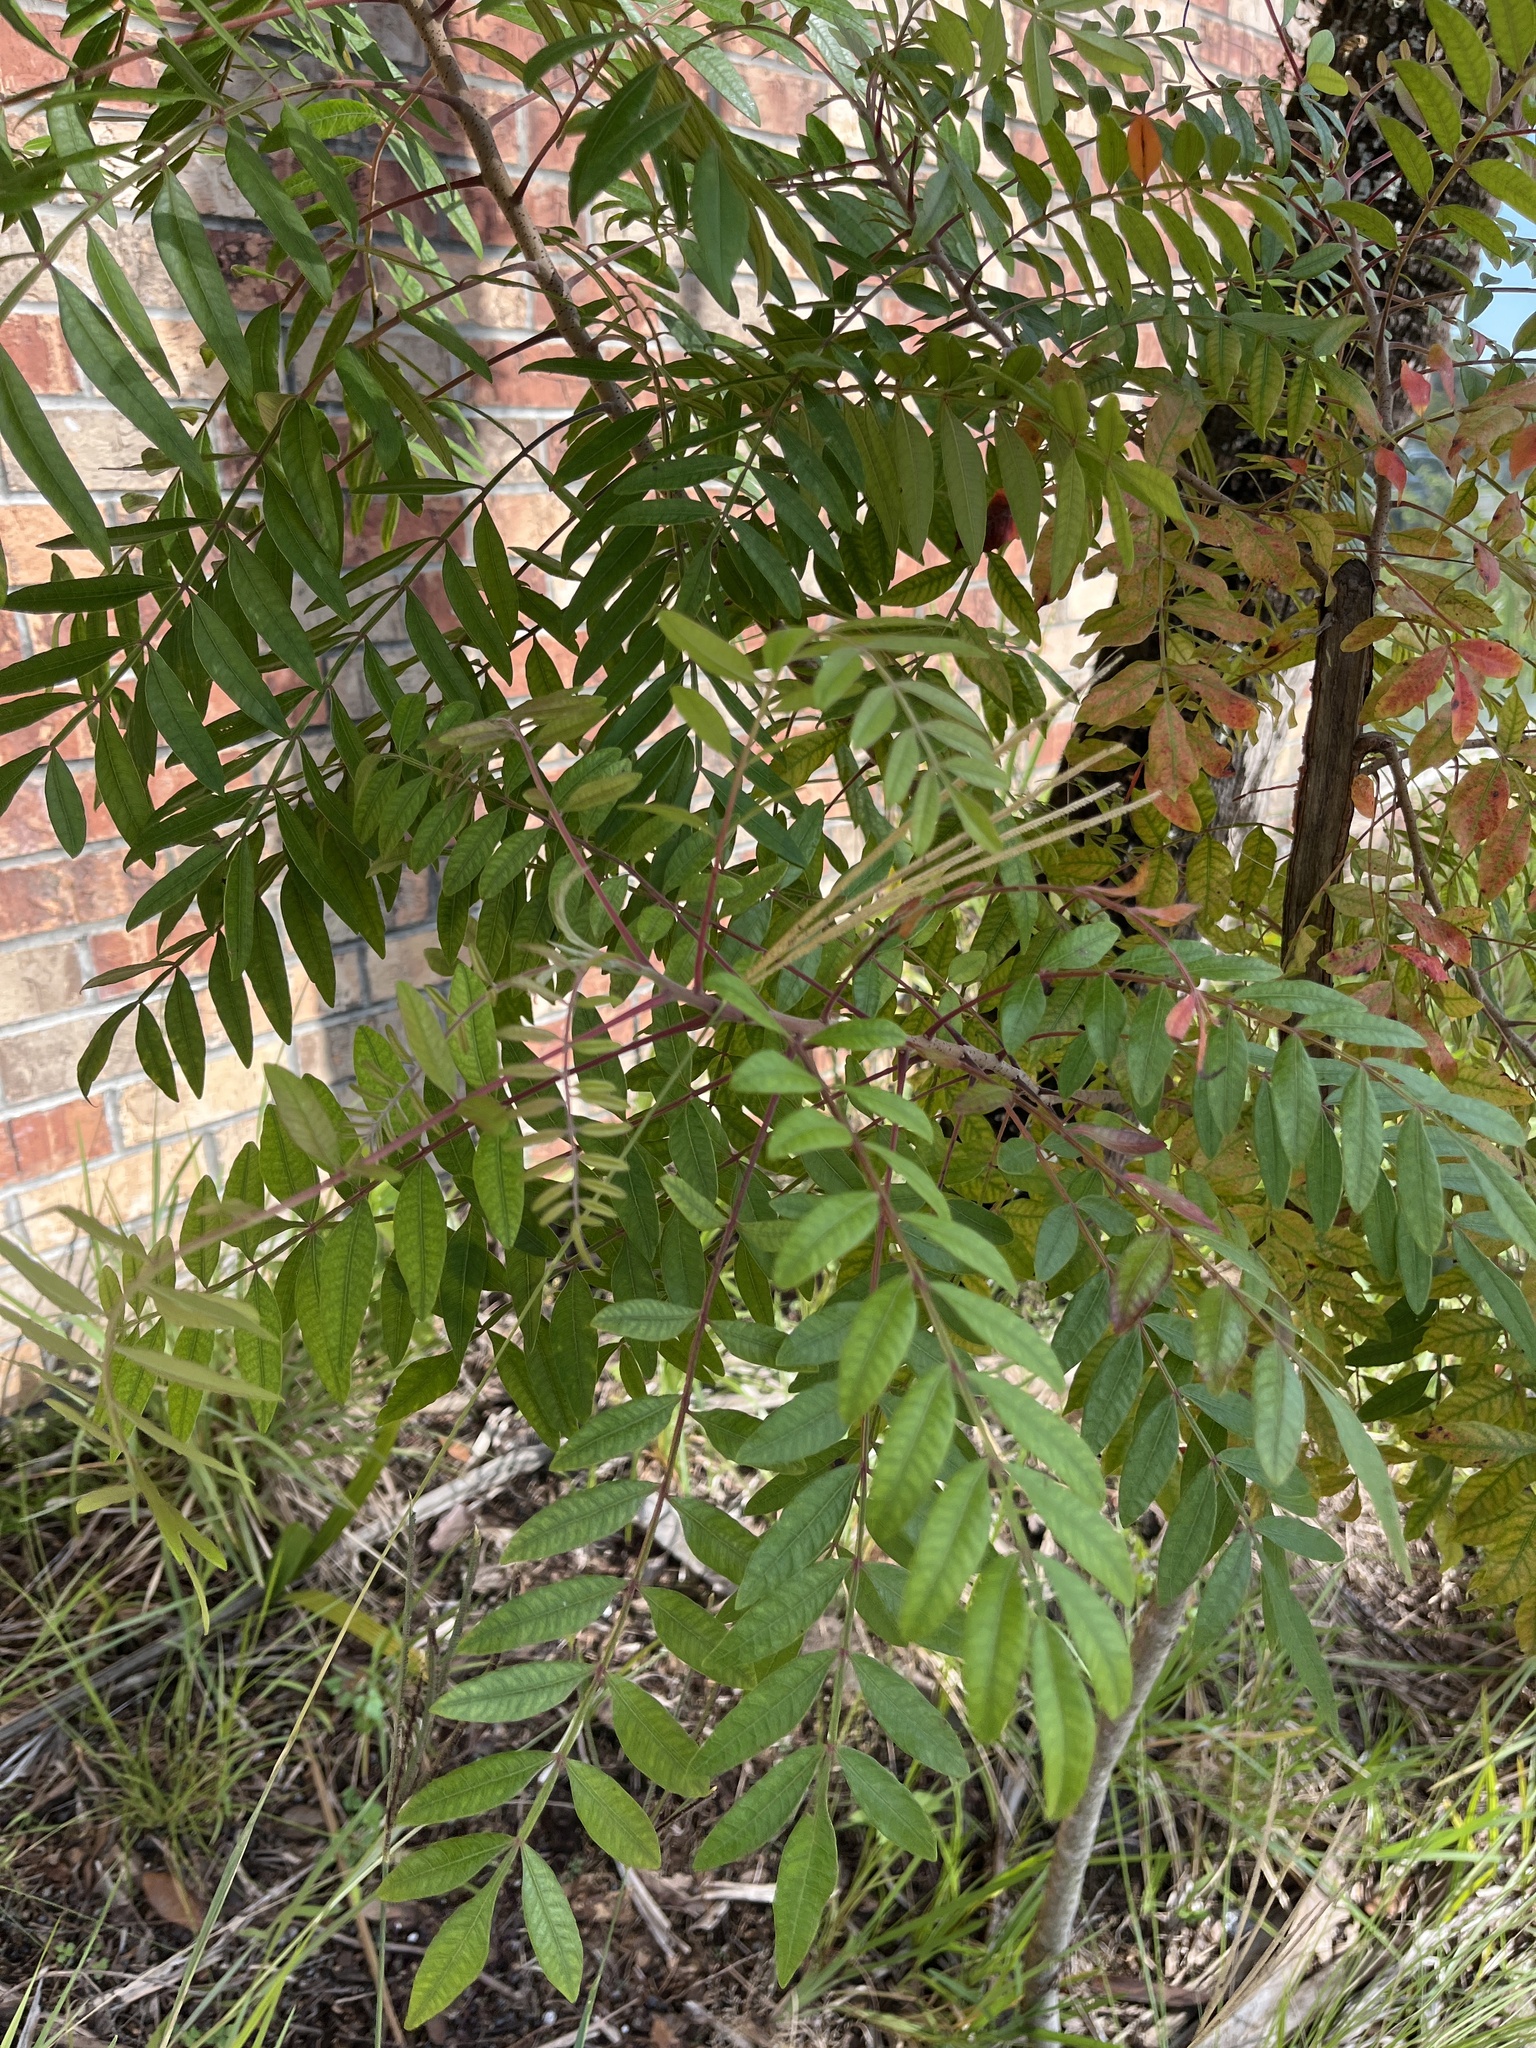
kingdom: Plantae
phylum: Tracheophyta
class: Magnoliopsida
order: Sapindales
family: Anacardiaceae
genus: Rhus
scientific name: Rhus copallina
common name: Shining sumac
